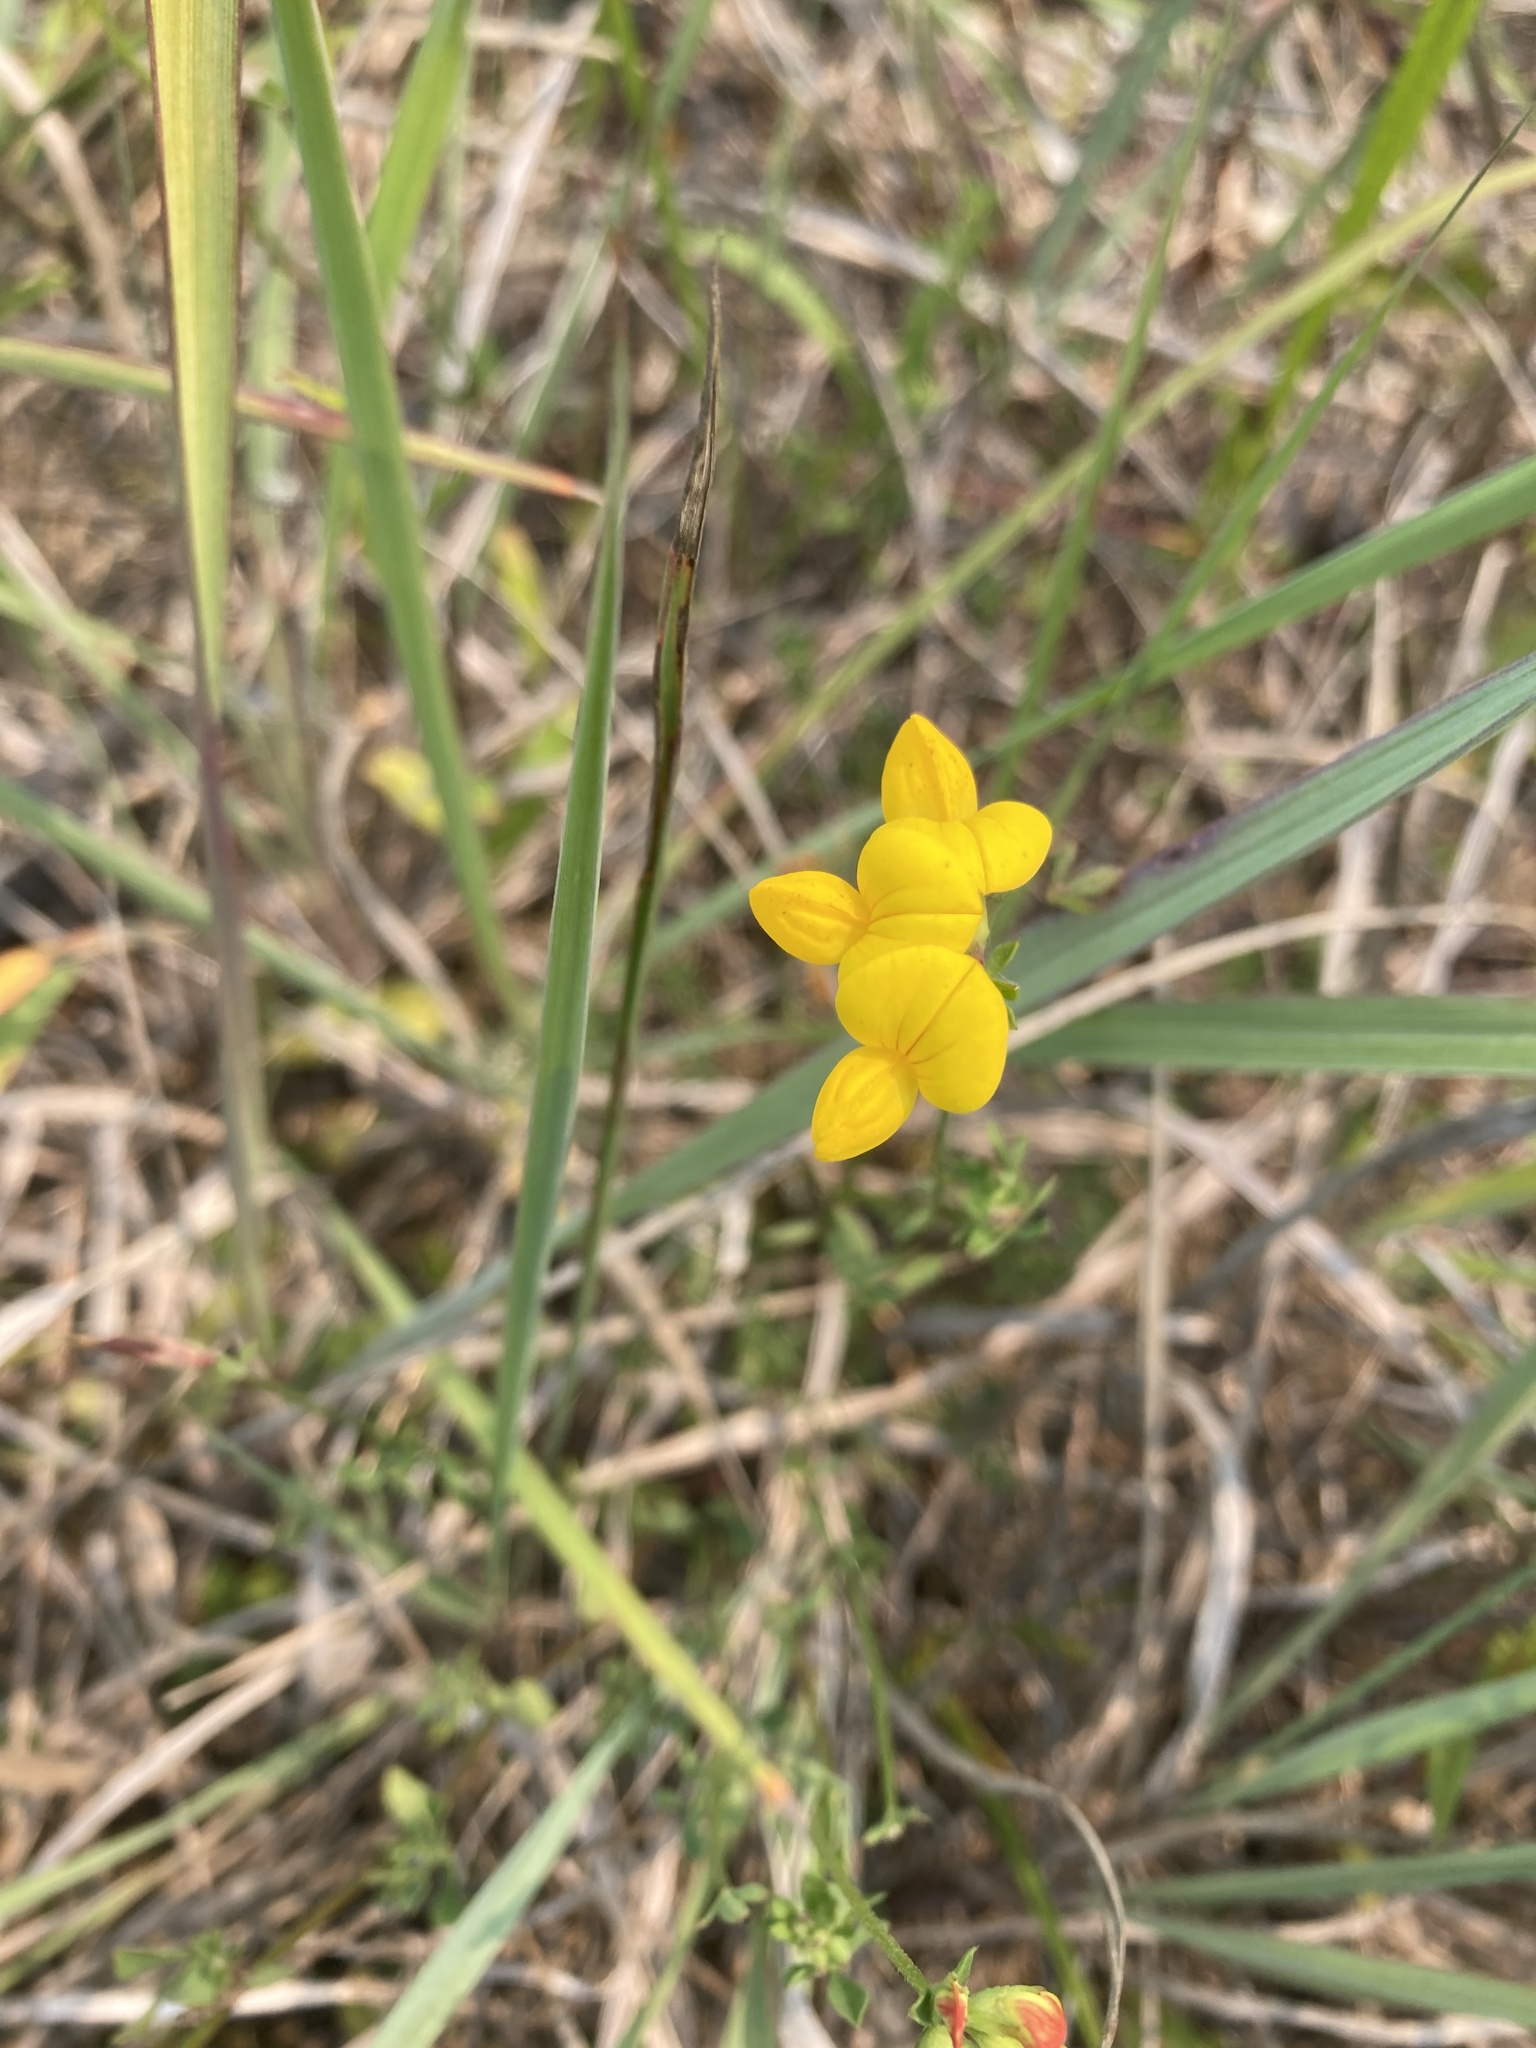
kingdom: Plantae
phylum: Tracheophyta
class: Magnoliopsida
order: Fabales
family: Fabaceae
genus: Lotus
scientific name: Lotus corniculatus
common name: Common bird's-foot-trefoil
